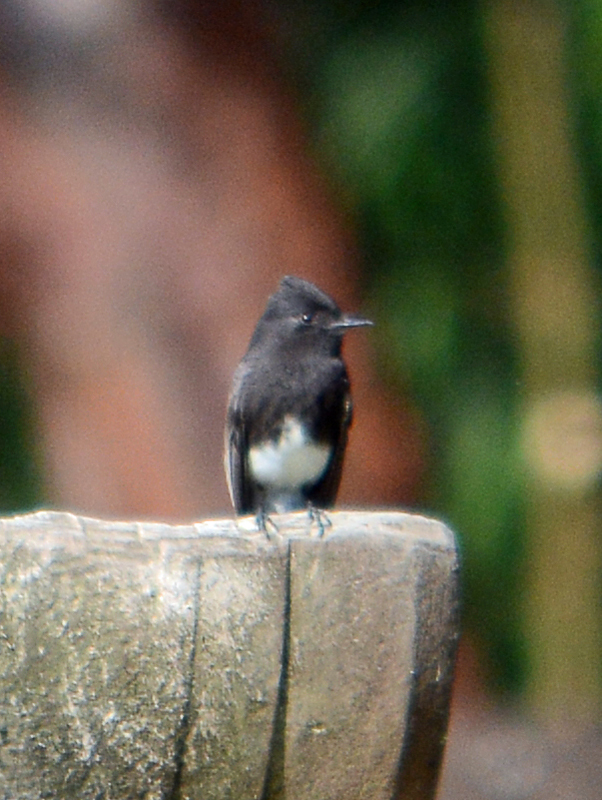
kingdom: Animalia
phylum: Chordata
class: Aves
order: Passeriformes
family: Tyrannidae
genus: Sayornis
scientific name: Sayornis nigricans
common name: Black phoebe
